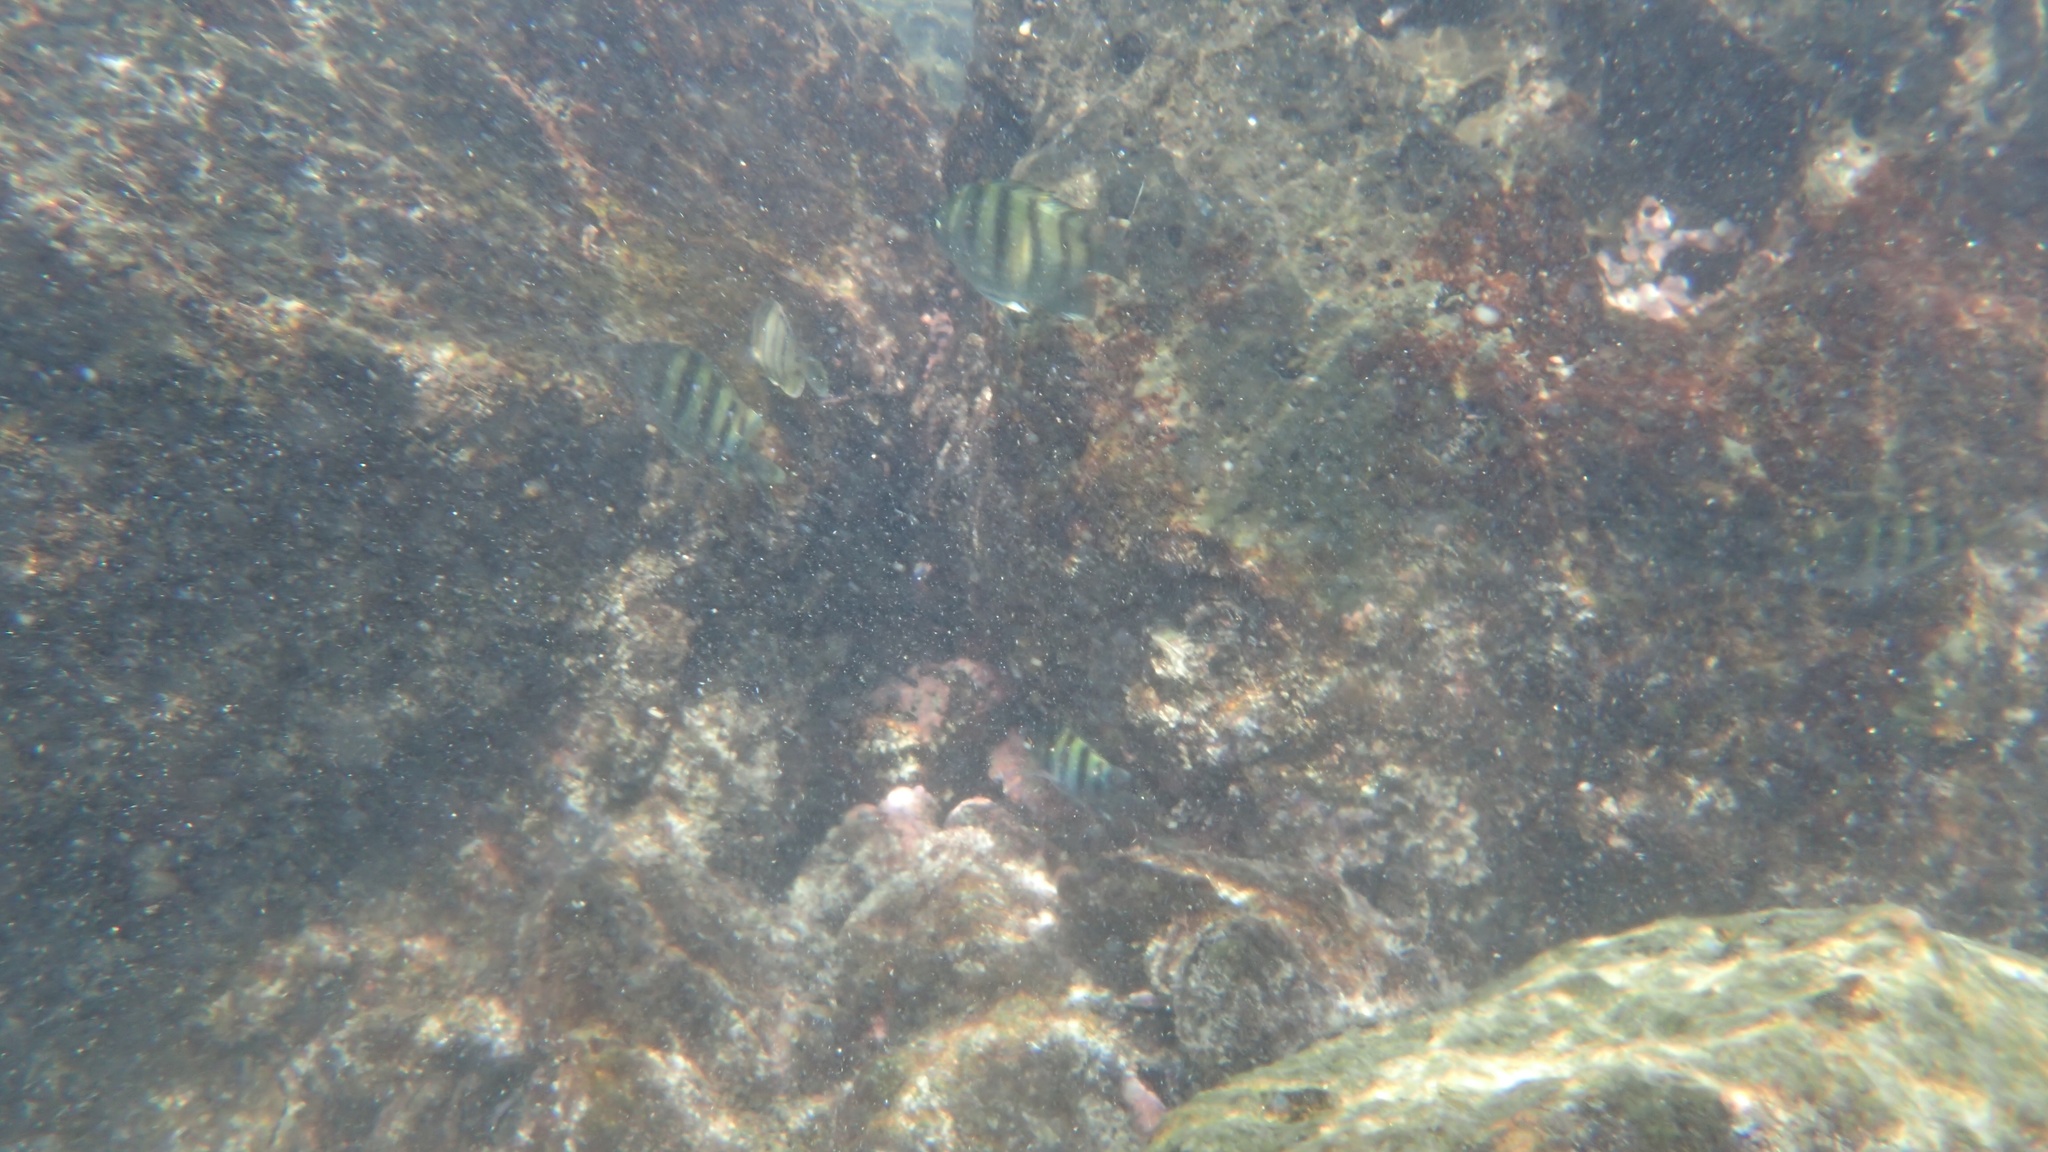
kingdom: Animalia
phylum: Chordata
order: Perciformes
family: Pomacentridae
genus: Abudefduf
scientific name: Abudefduf
